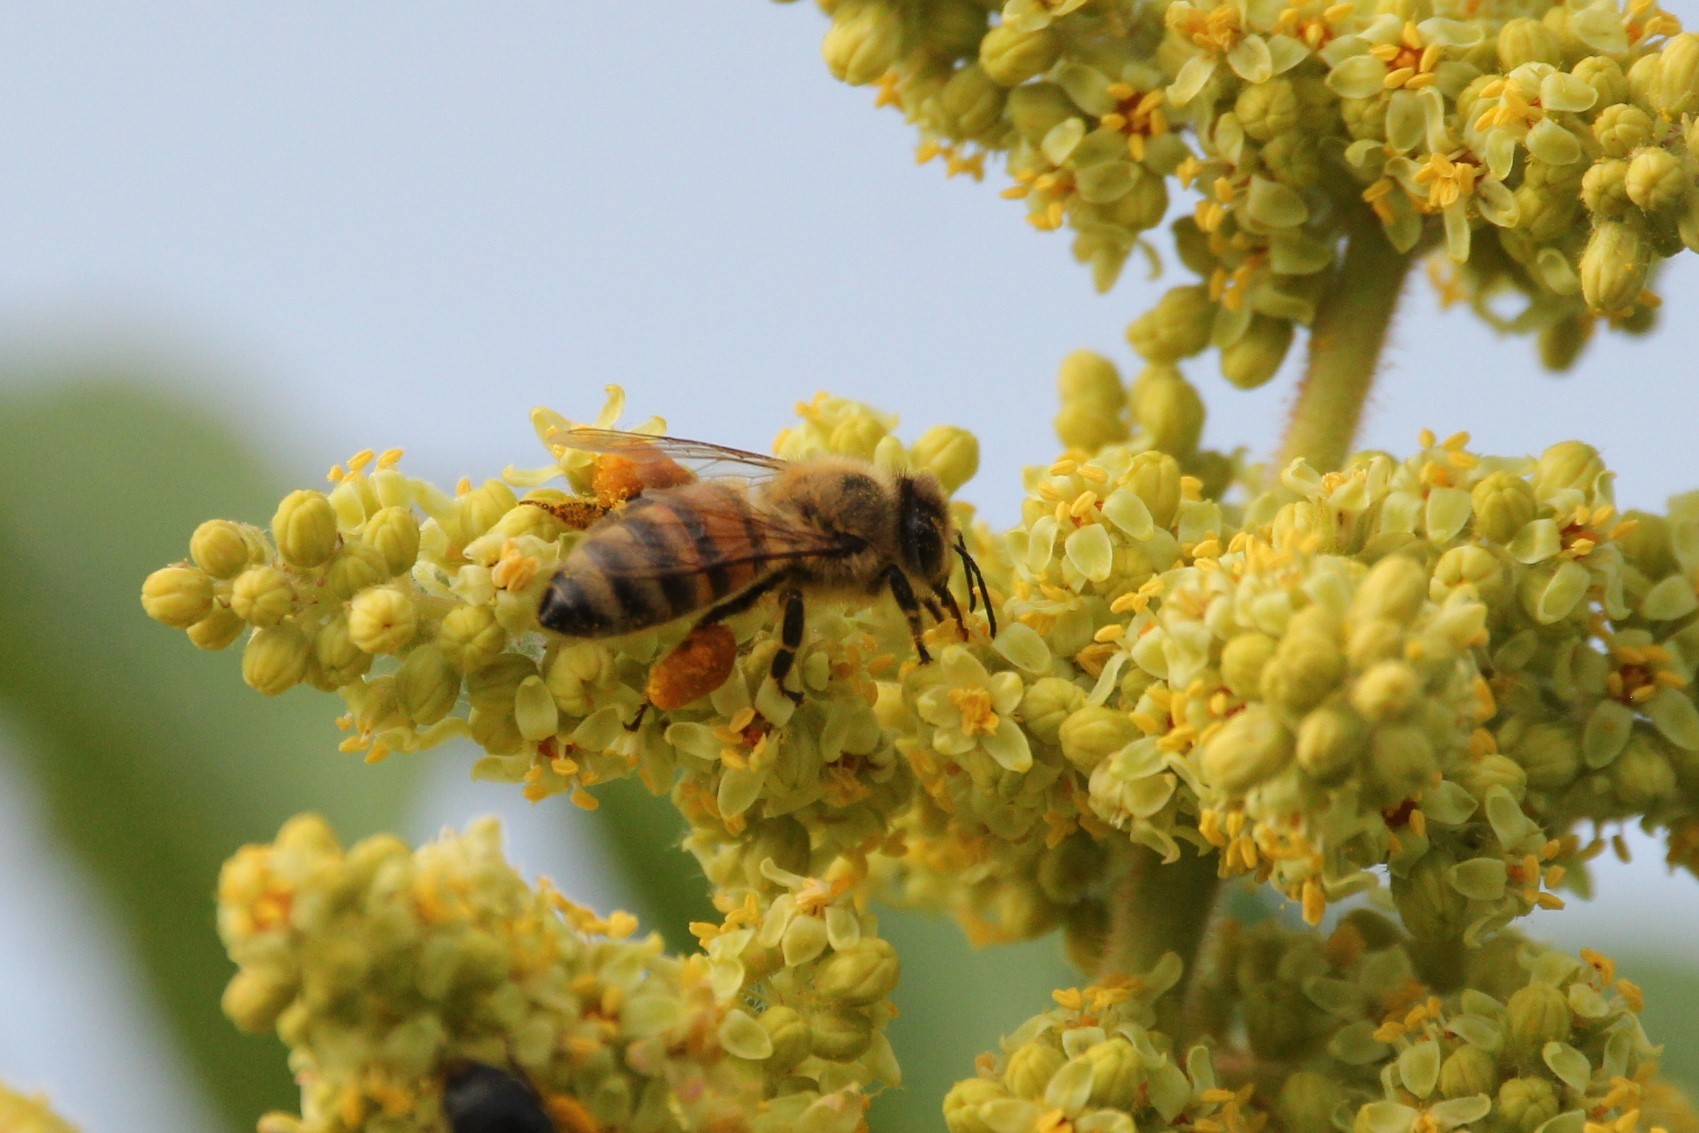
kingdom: Animalia
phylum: Arthropoda
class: Insecta
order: Hymenoptera
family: Apidae
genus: Apis
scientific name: Apis mellifera
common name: Honey bee
